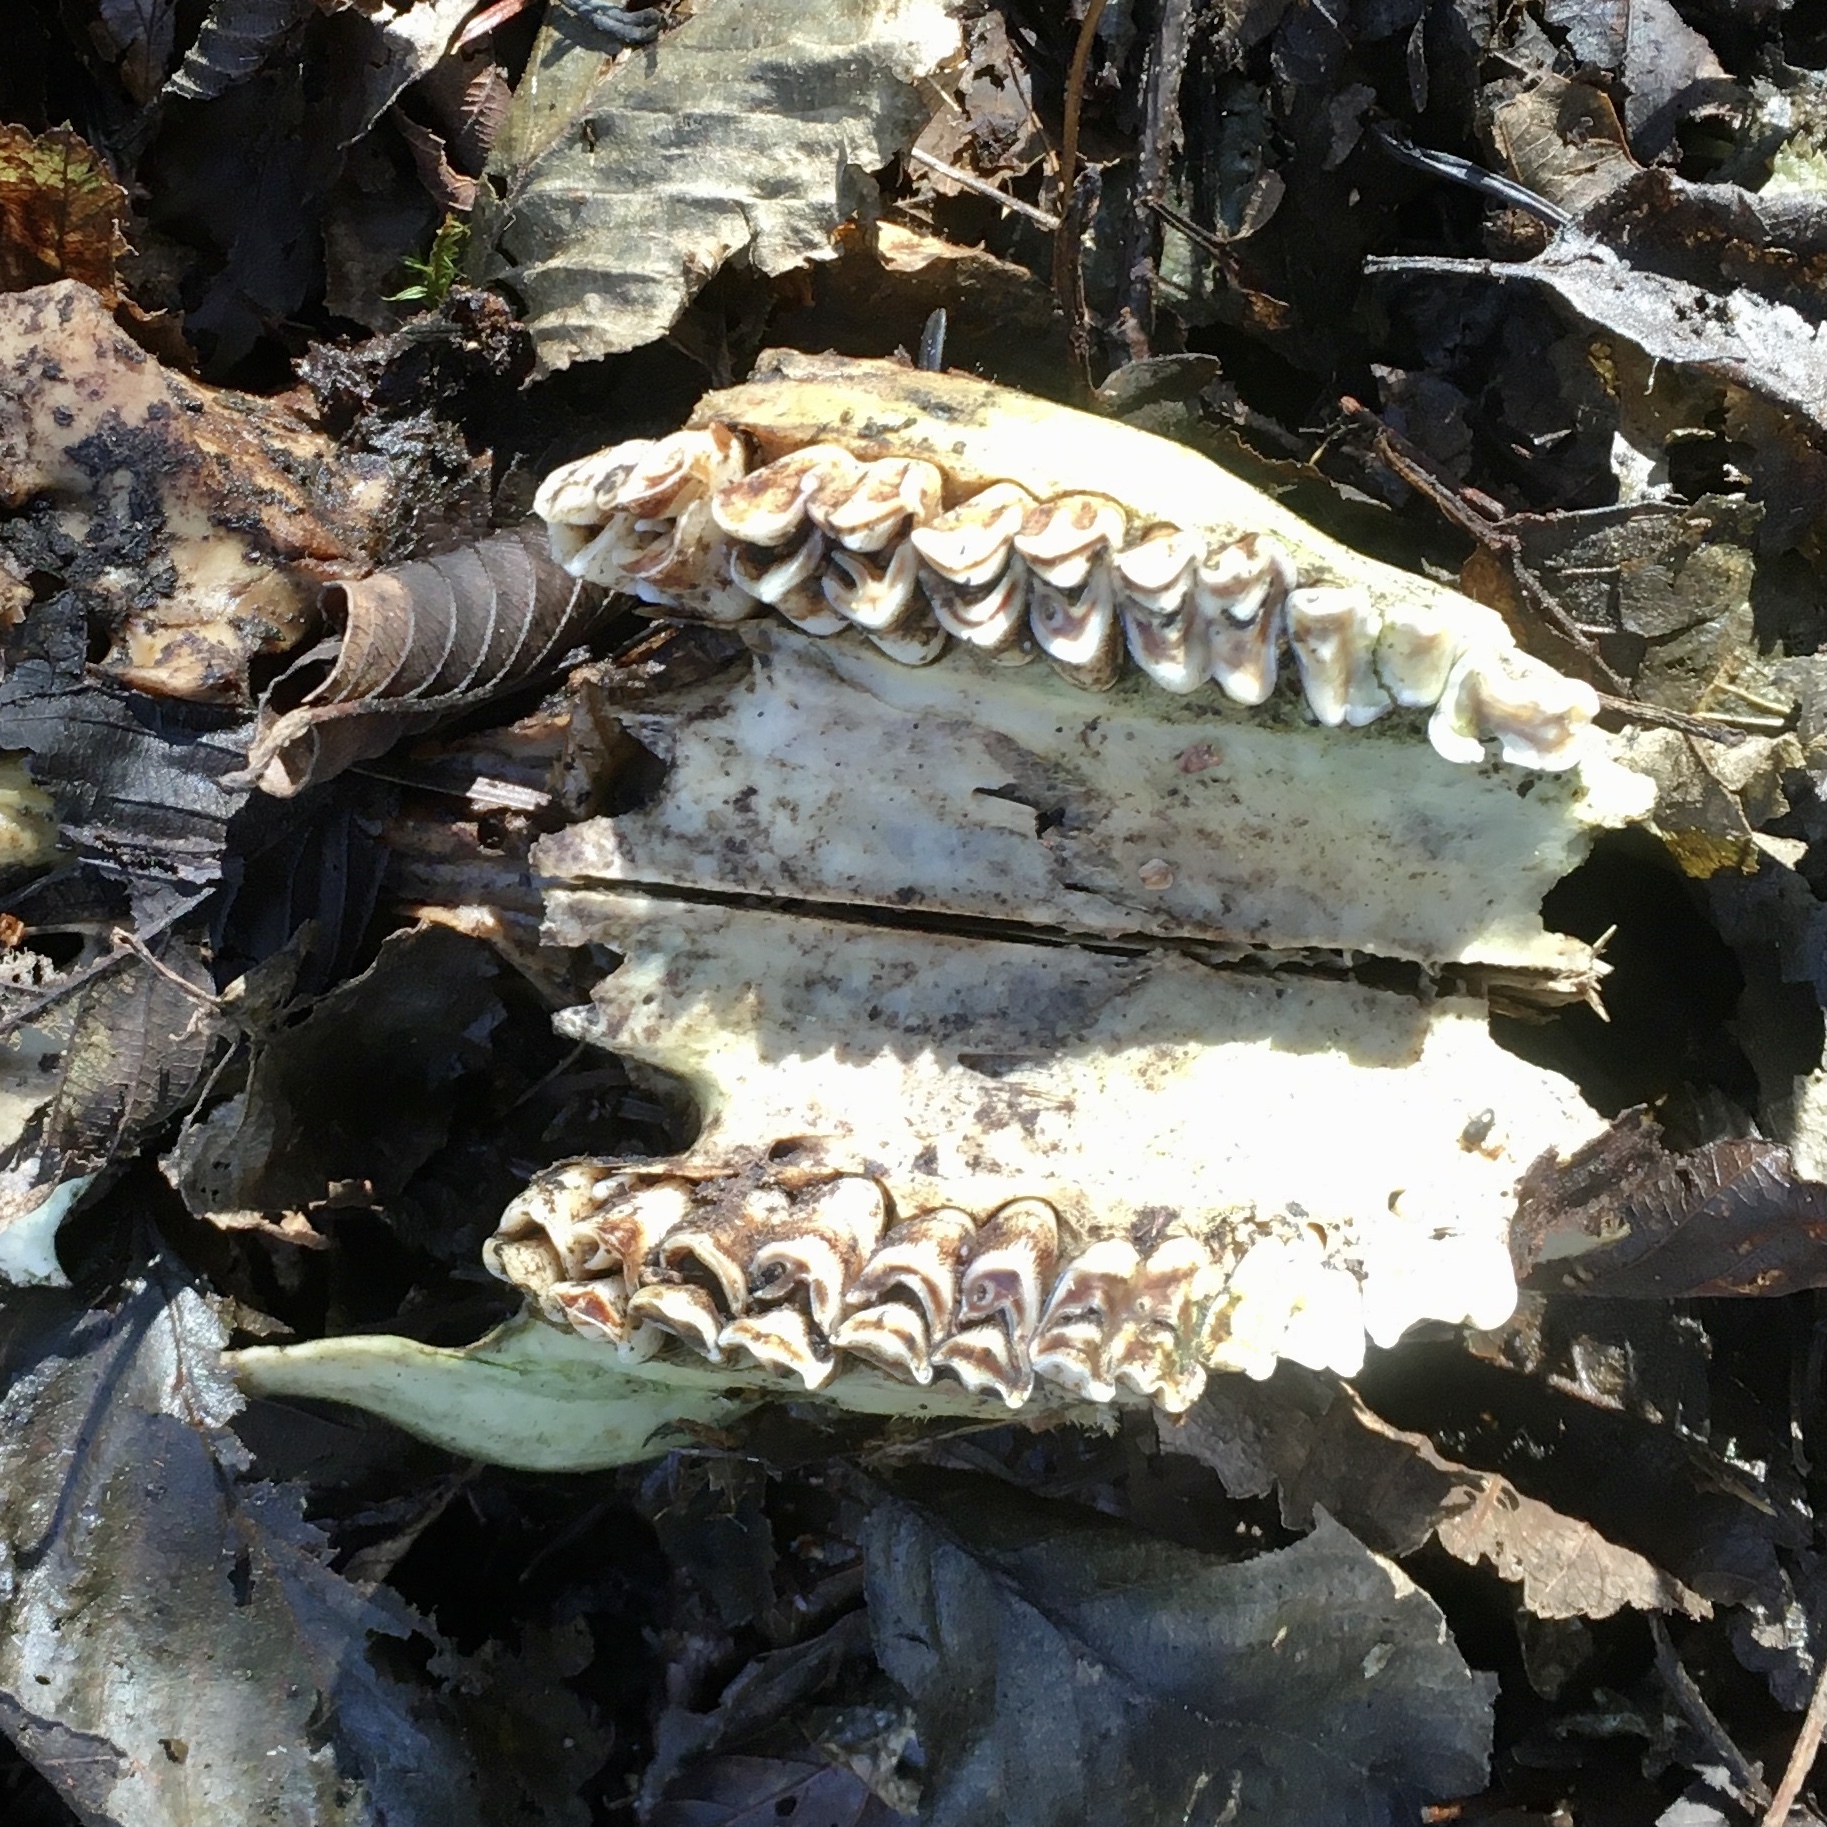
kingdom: Animalia
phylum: Chordata
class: Mammalia
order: Artiodactyla
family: Cervidae
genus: Odocoileus
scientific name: Odocoileus hemionus
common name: Mule deer
